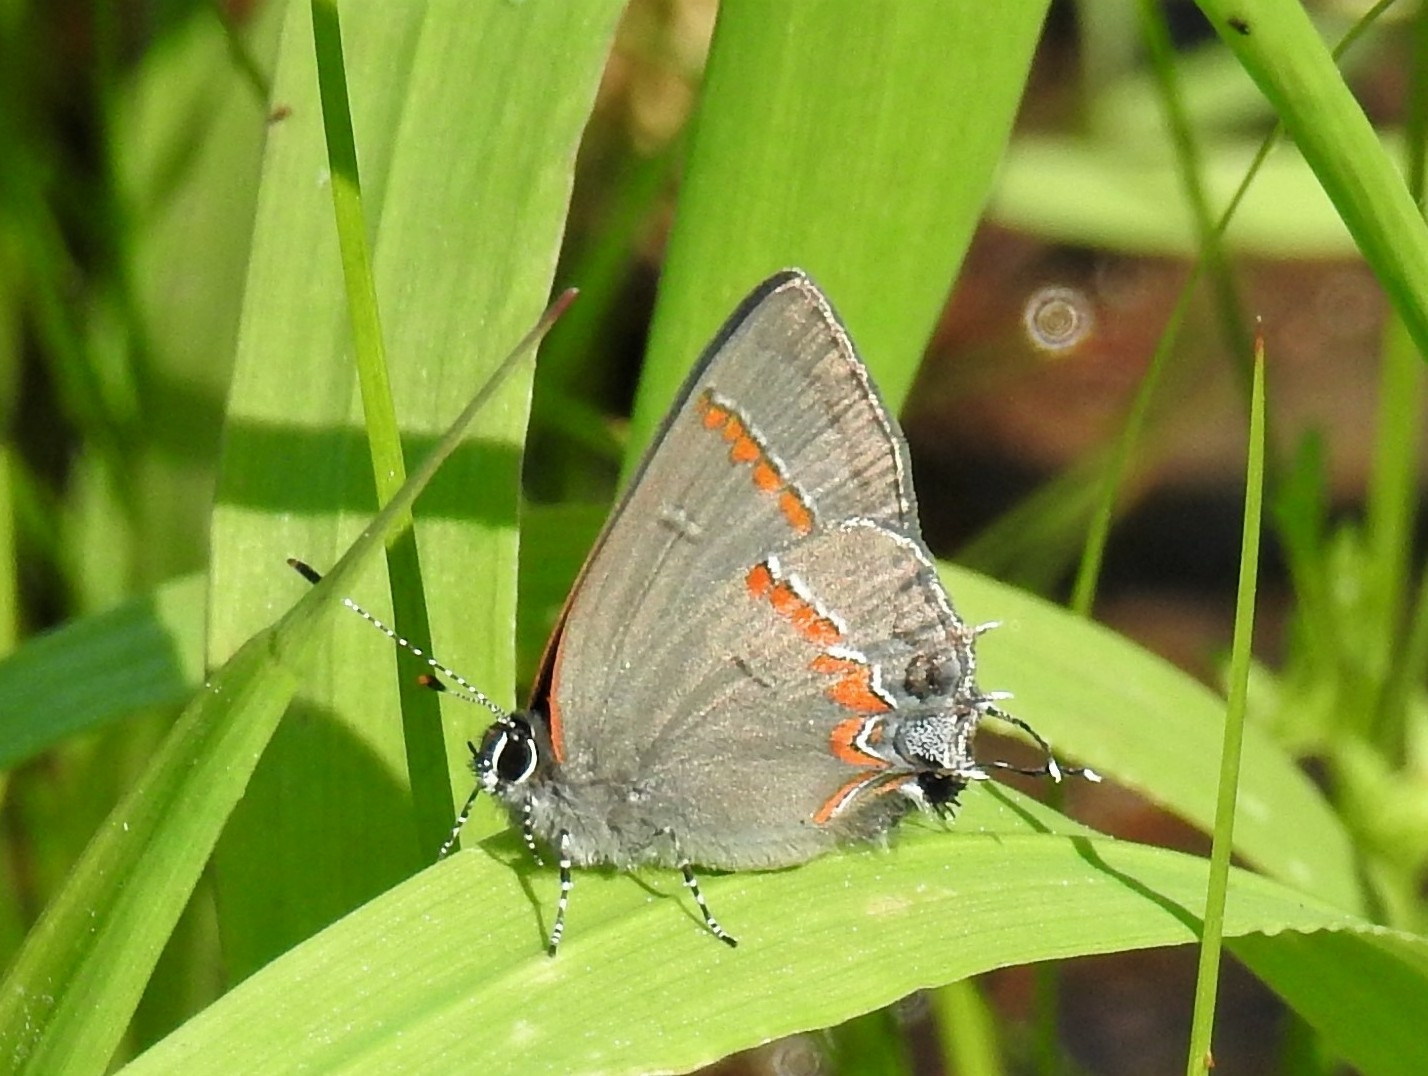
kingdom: Animalia
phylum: Arthropoda
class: Insecta
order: Lepidoptera
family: Lycaenidae
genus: Calycopis
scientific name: Calycopis cecrops
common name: Red-banded hairstreak
